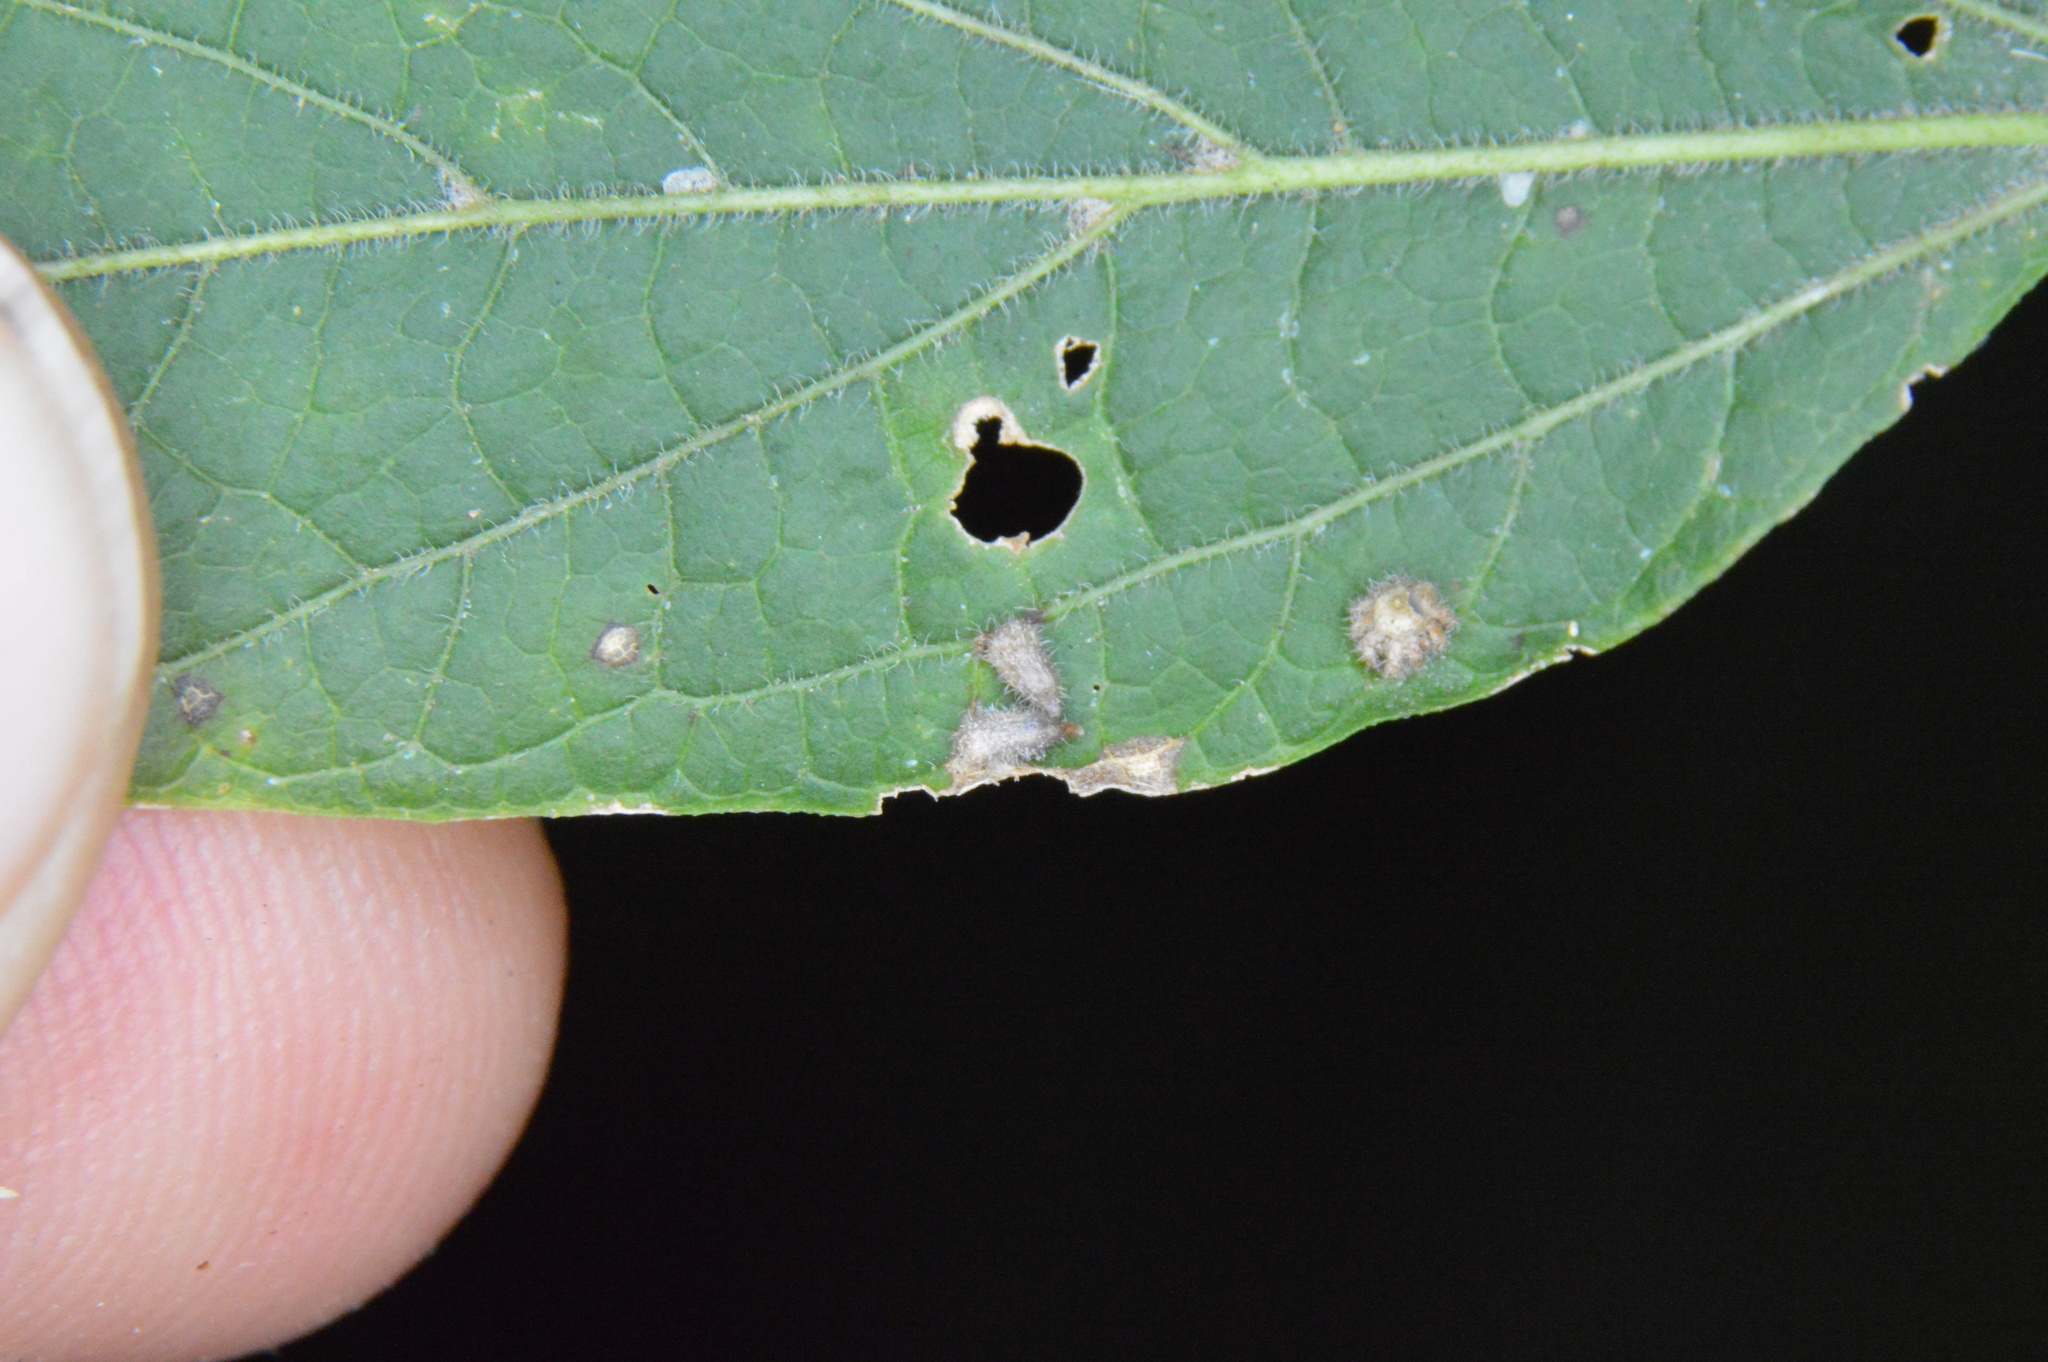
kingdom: Animalia
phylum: Arthropoda
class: Insecta
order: Diptera
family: Cecidomyiidae
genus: Celticecis
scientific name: Celticecis supina
